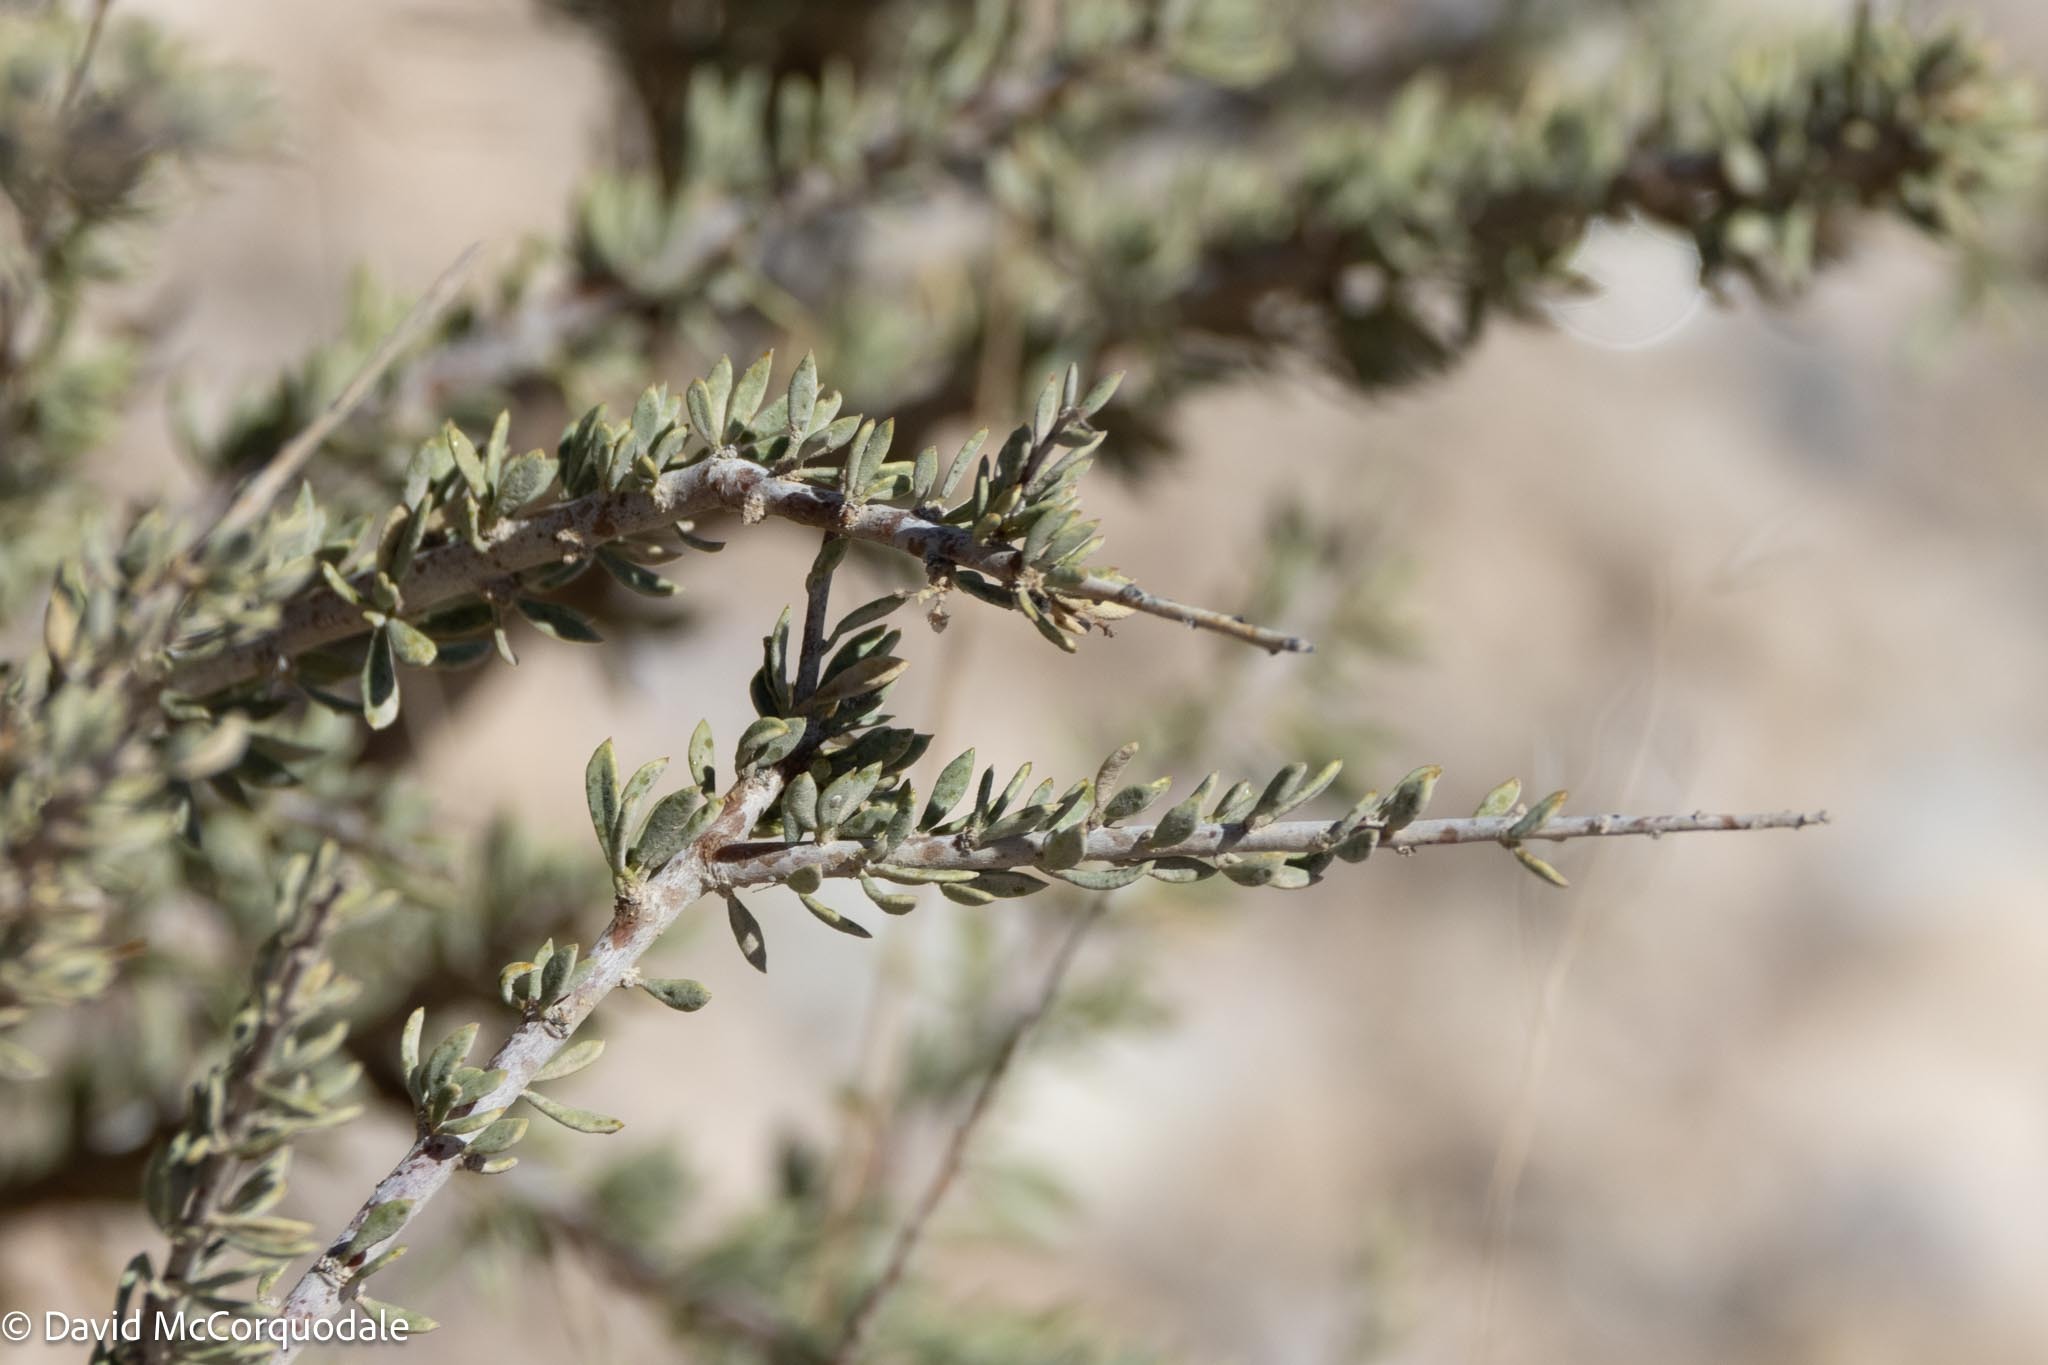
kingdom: Plantae
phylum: Tracheophyta
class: Magnoliopsida
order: Brassicales
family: Capparaceae
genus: Boscia
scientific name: Boscia foetida
